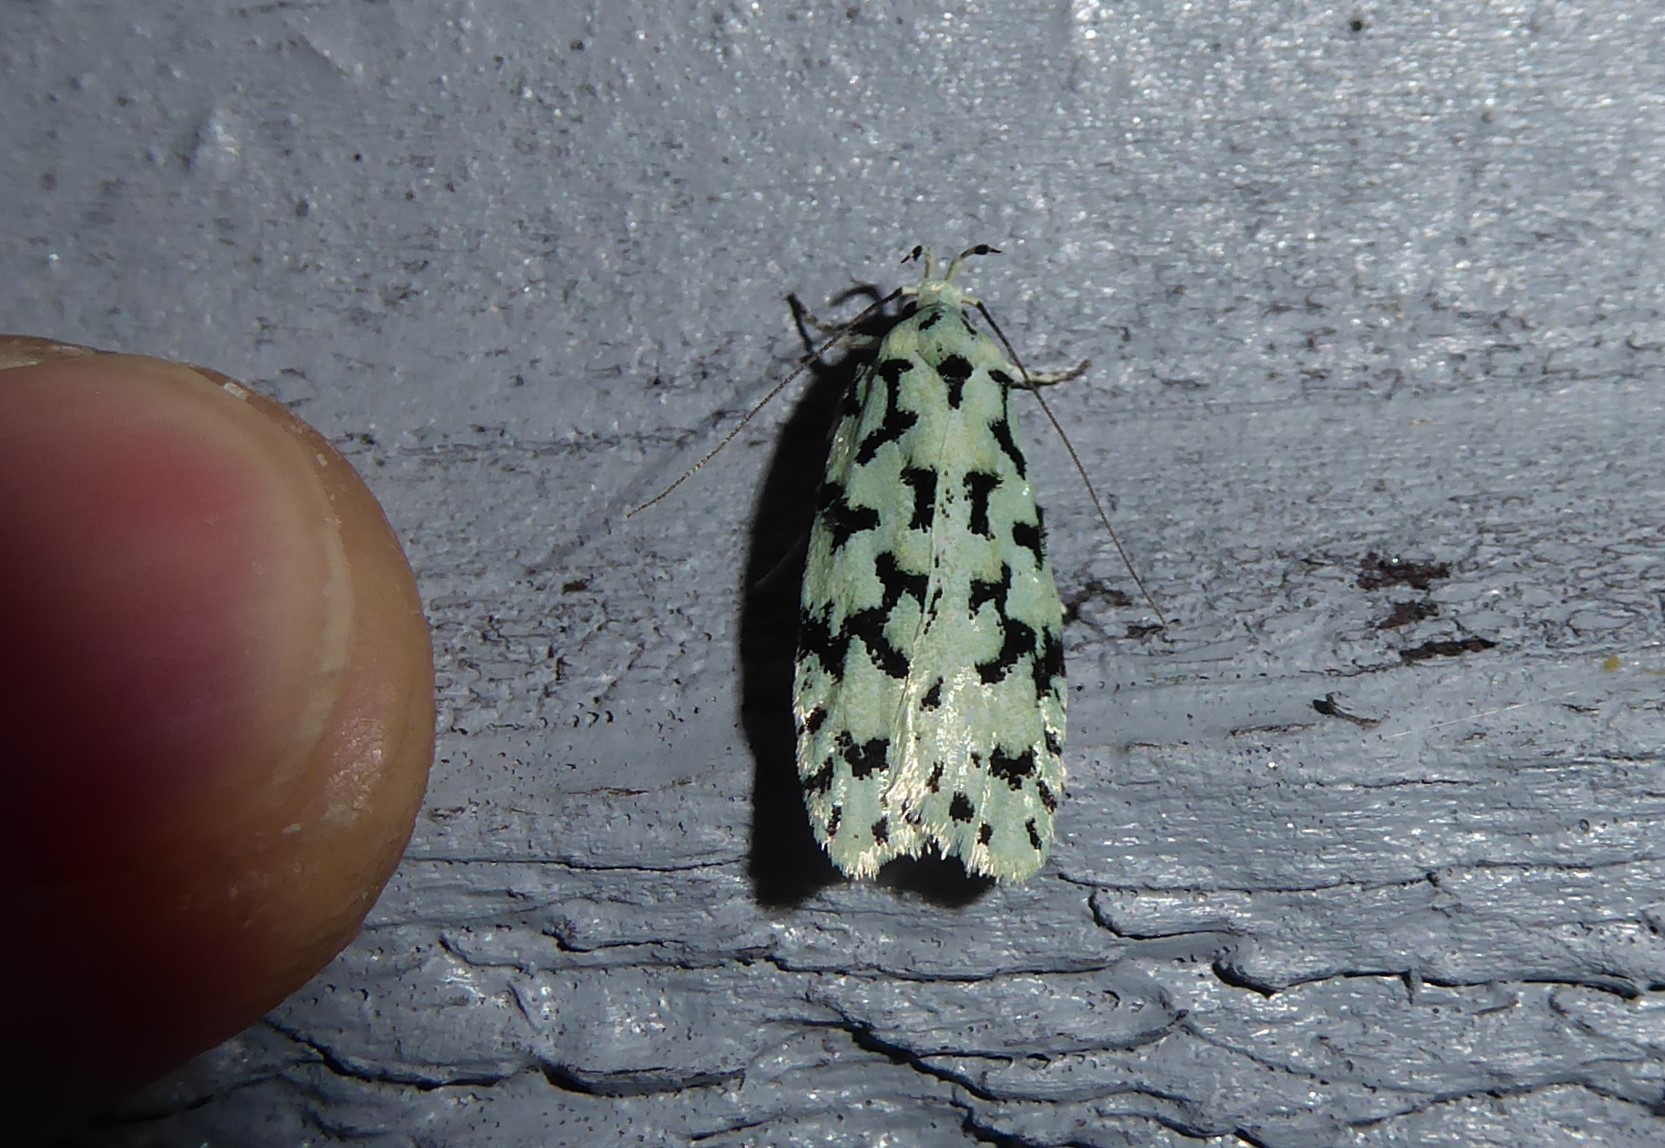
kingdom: Animalia
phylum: Arthropoda
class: Insecta
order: Lepidoptera
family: Oecophoridae
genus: Izatha
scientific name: Izatha huttoni
